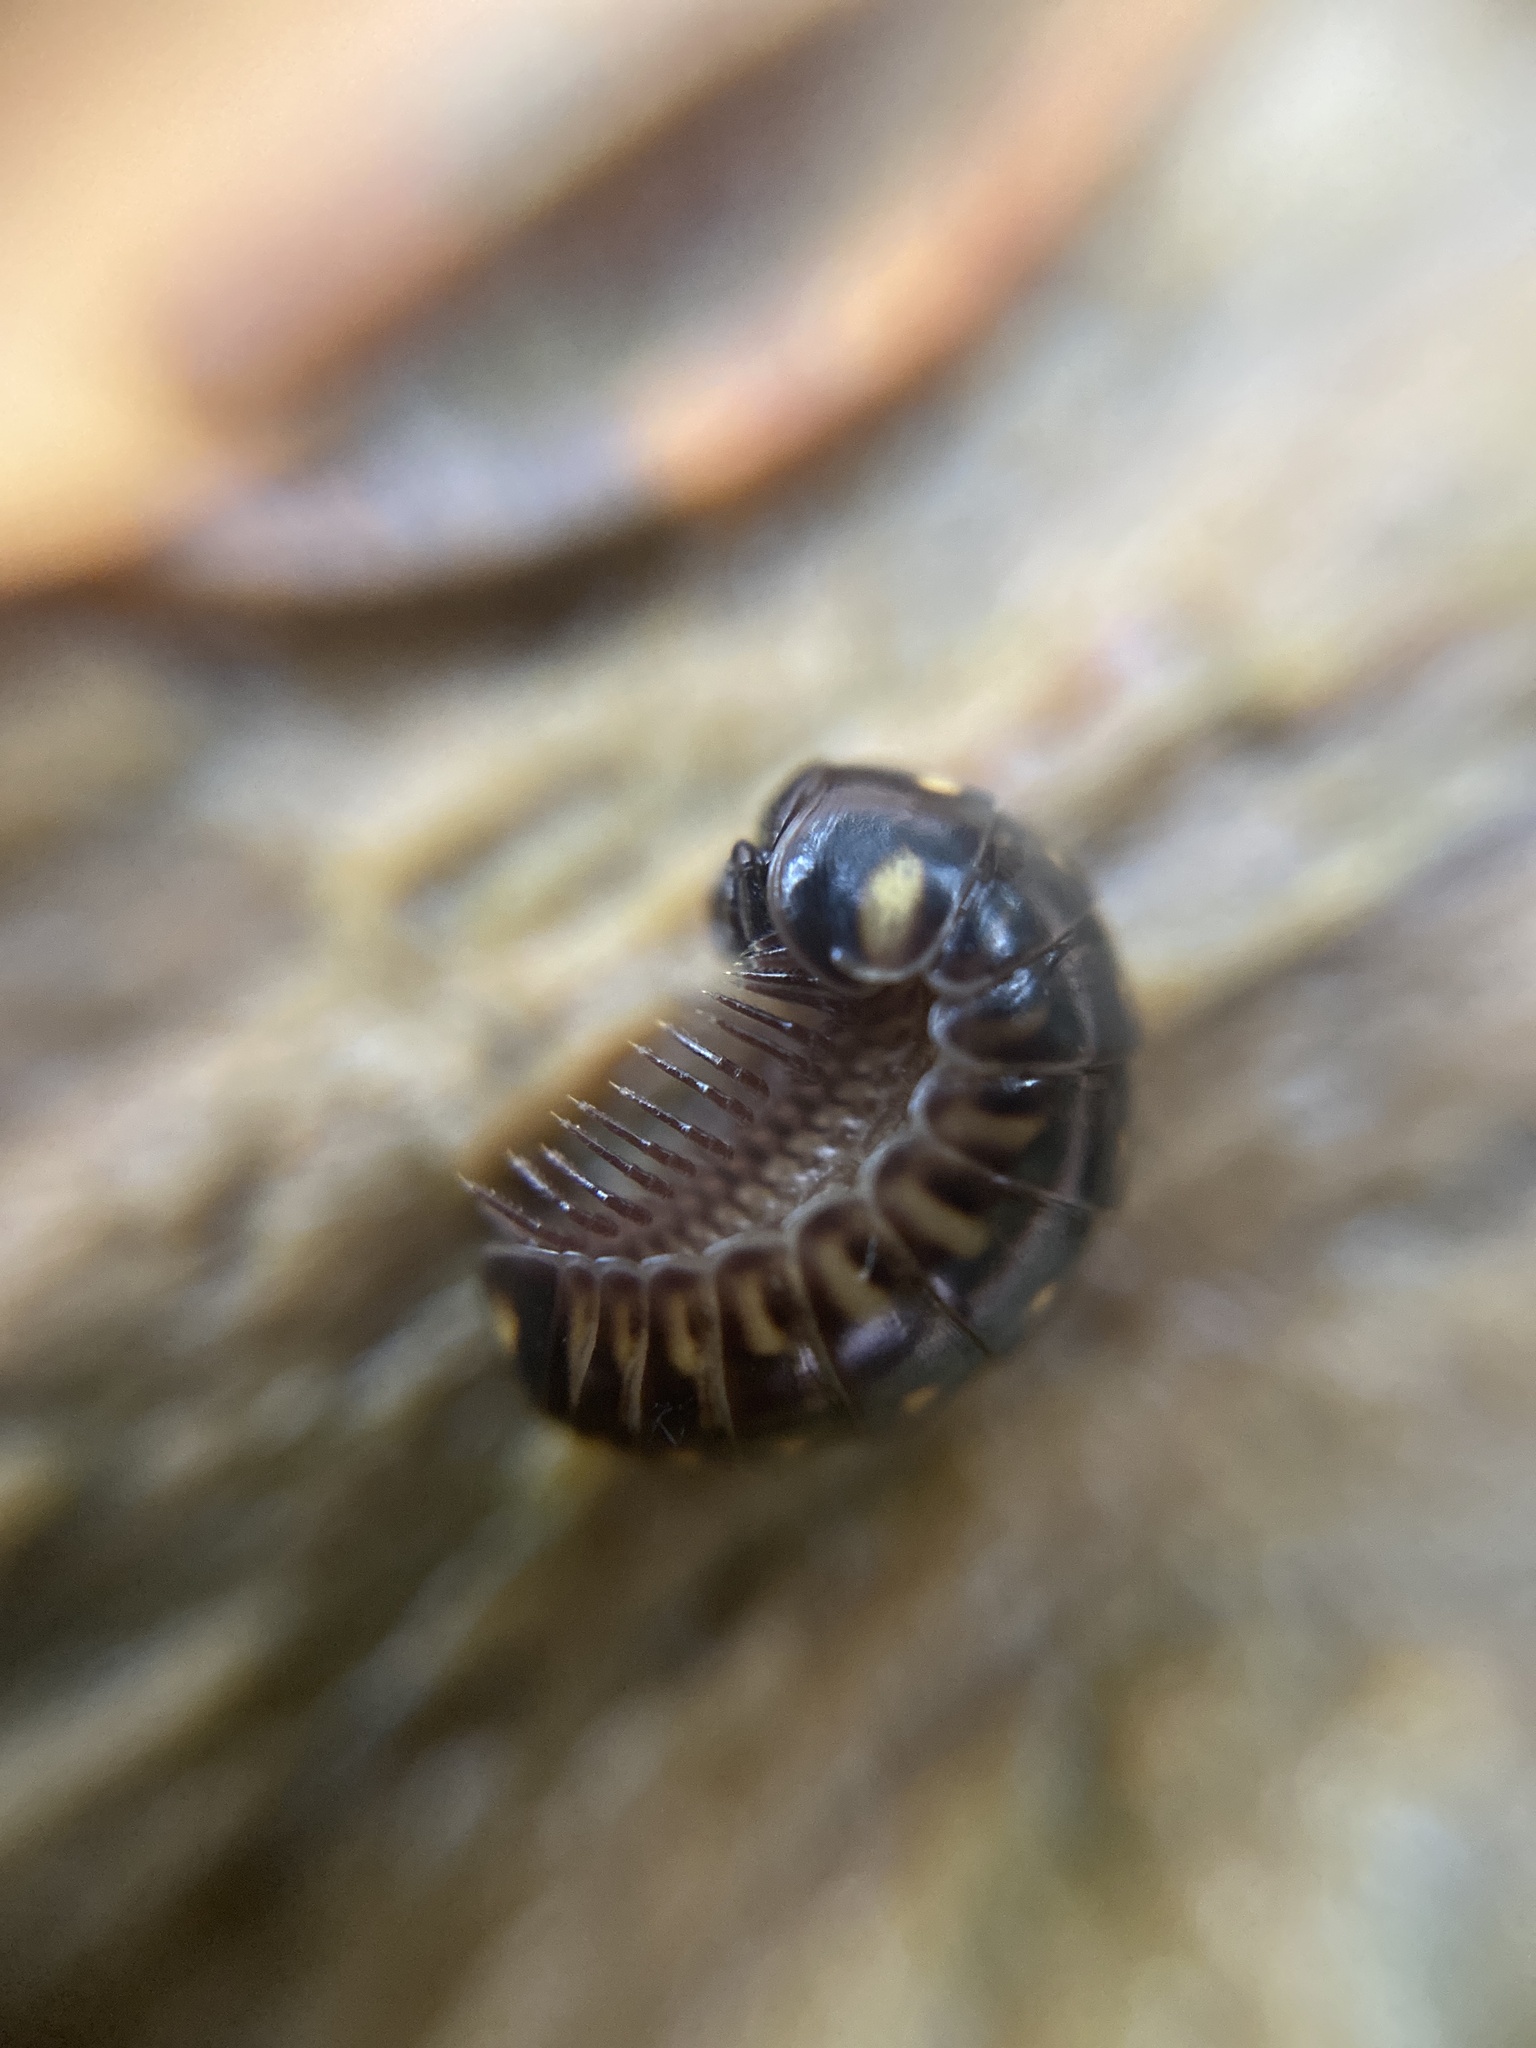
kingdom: Animalia
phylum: Arthropoda
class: Diplopoda
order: Glomerida
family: Glomeridae
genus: Glomeris
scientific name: Glomeris tetrasticha
